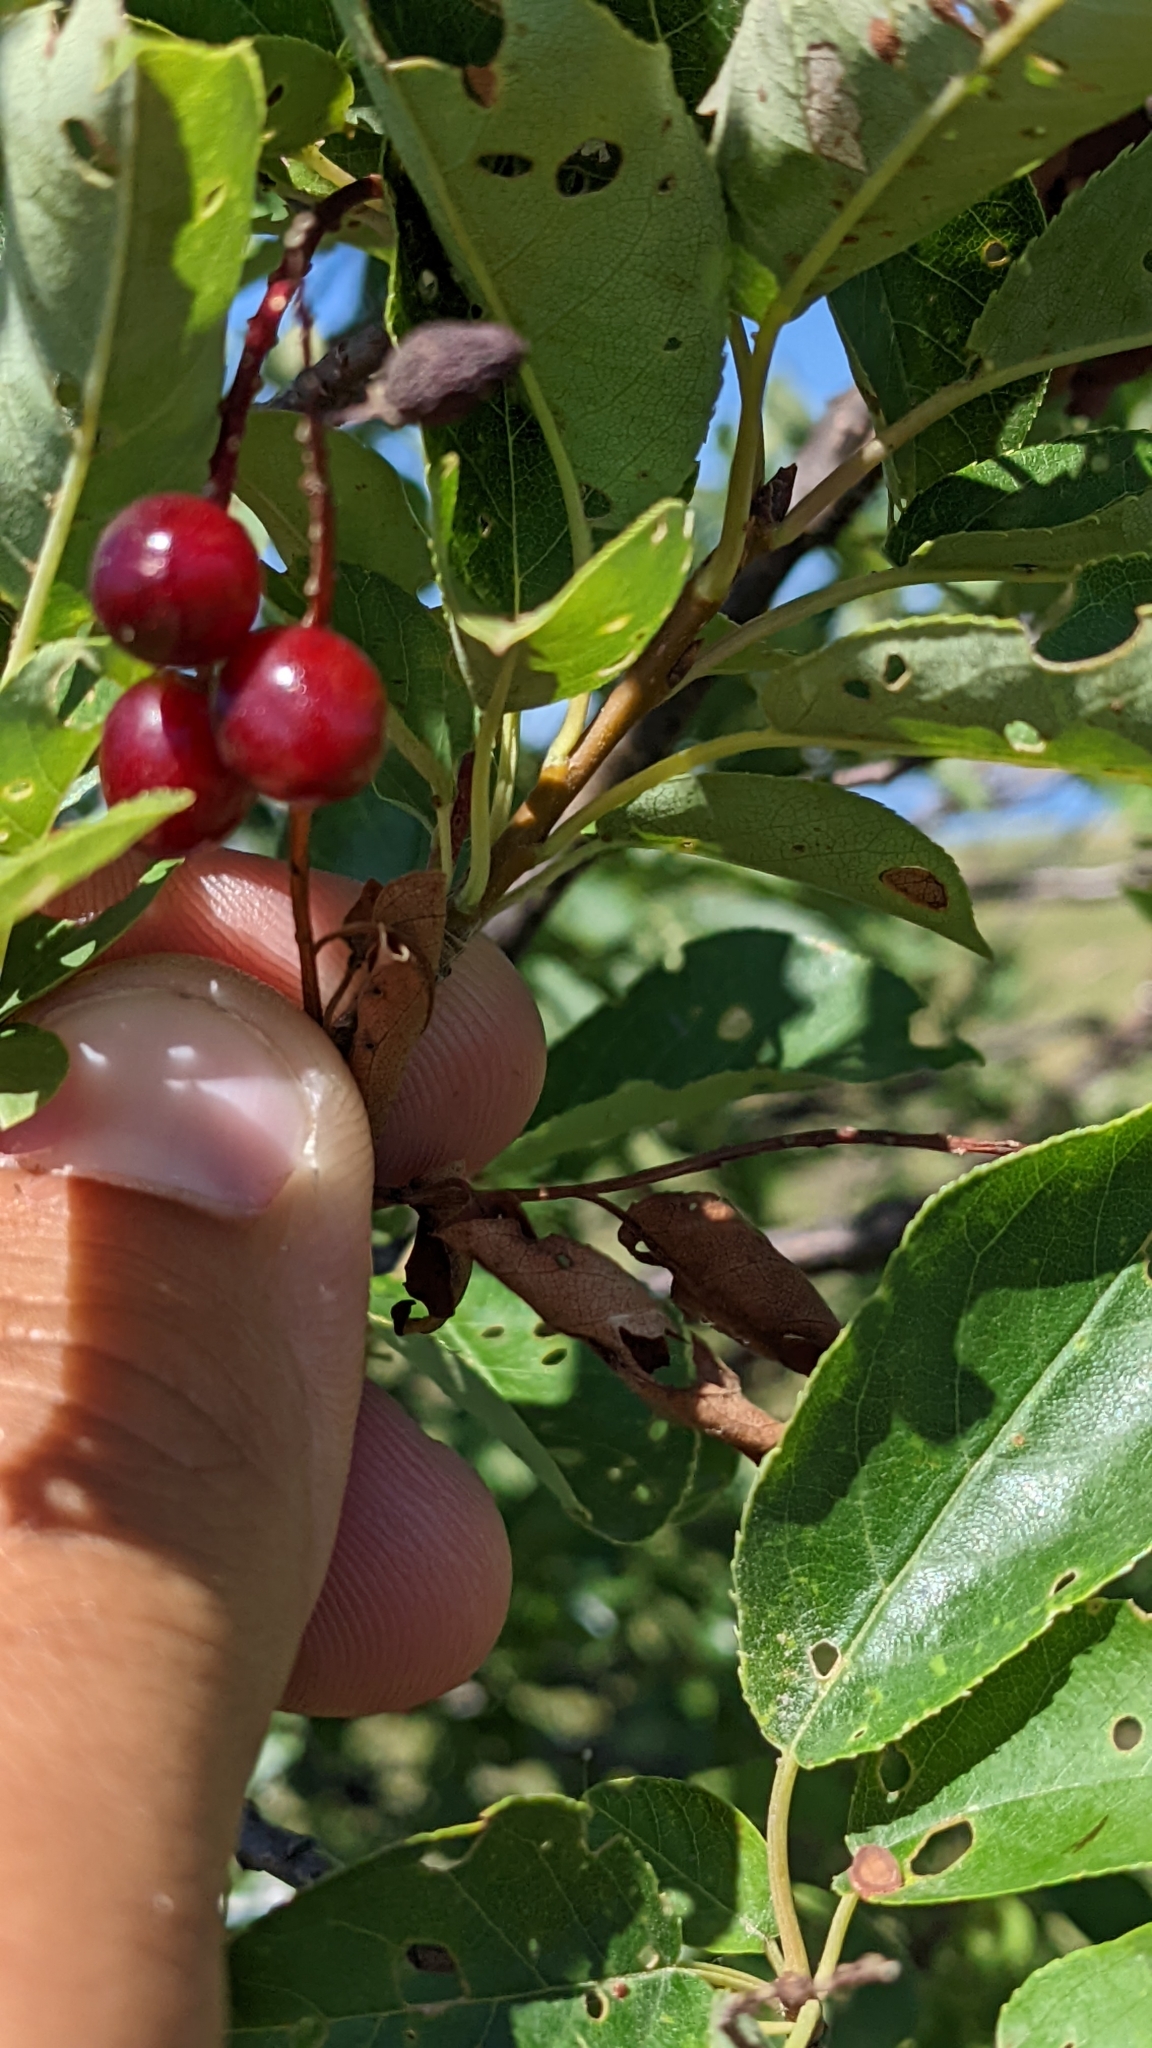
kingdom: Plantae
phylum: Tracheophyta
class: Magnoliopsida
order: Rosales
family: Rosaceae
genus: Prunus
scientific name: Prunus virginiana
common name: Chokecherry
